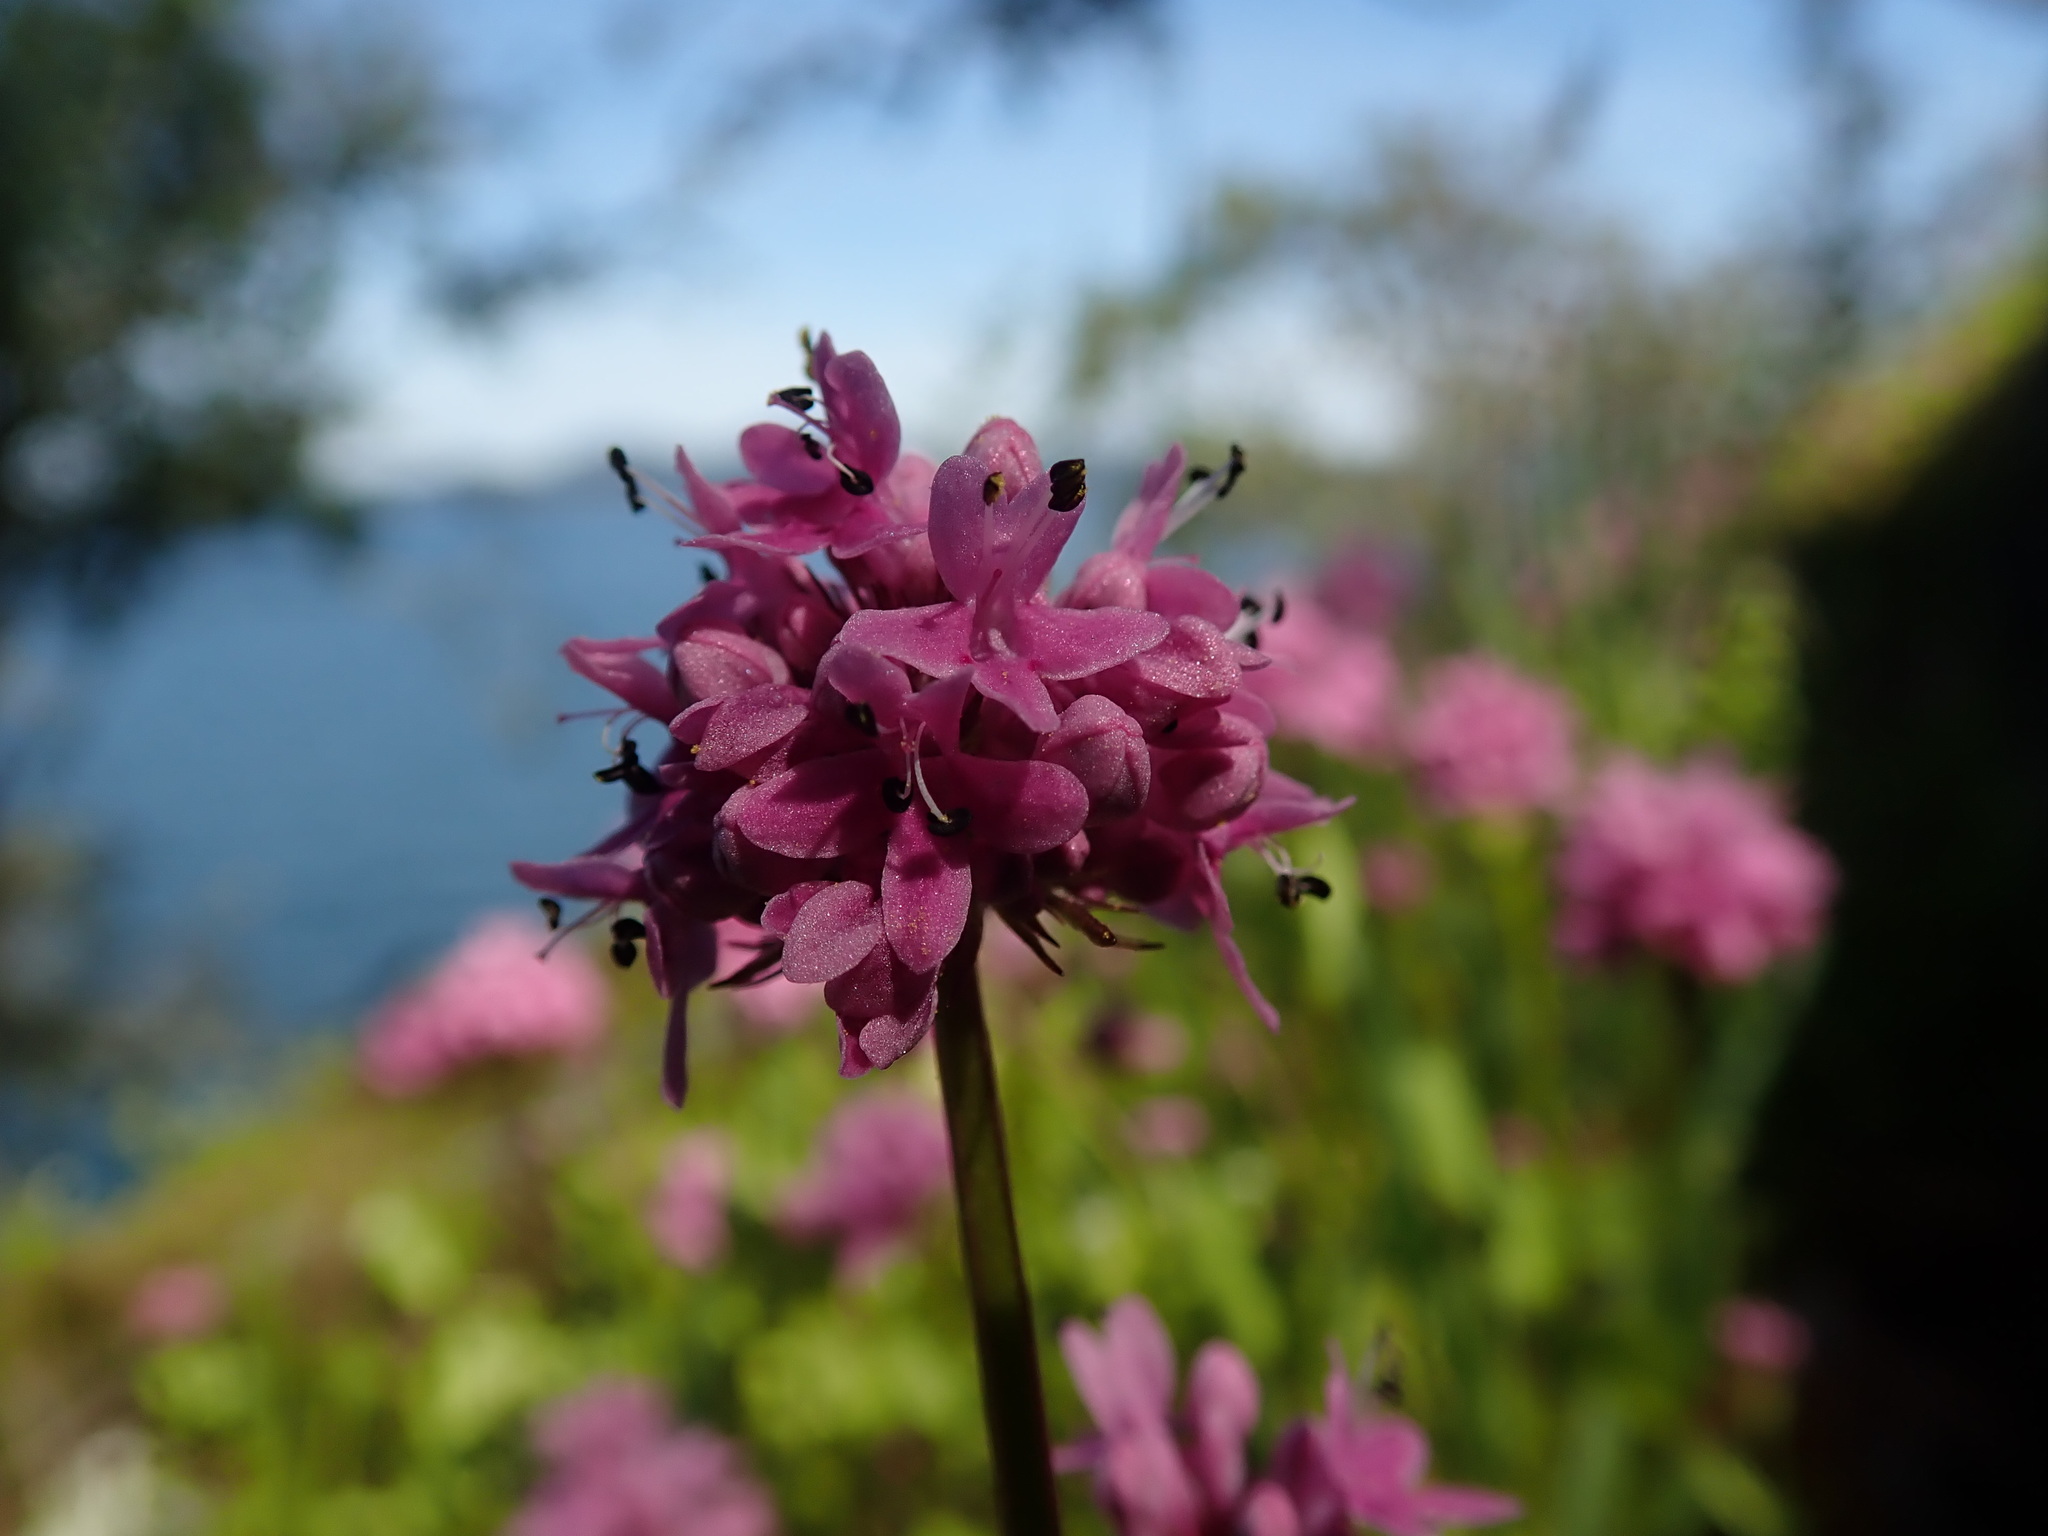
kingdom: Plantae
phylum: Tracheophyta
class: Magnoliopsida
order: Dipsacales
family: Caprifoliaceae
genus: Plectritis
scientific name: Plectritis congesta
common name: Pink plectritis
